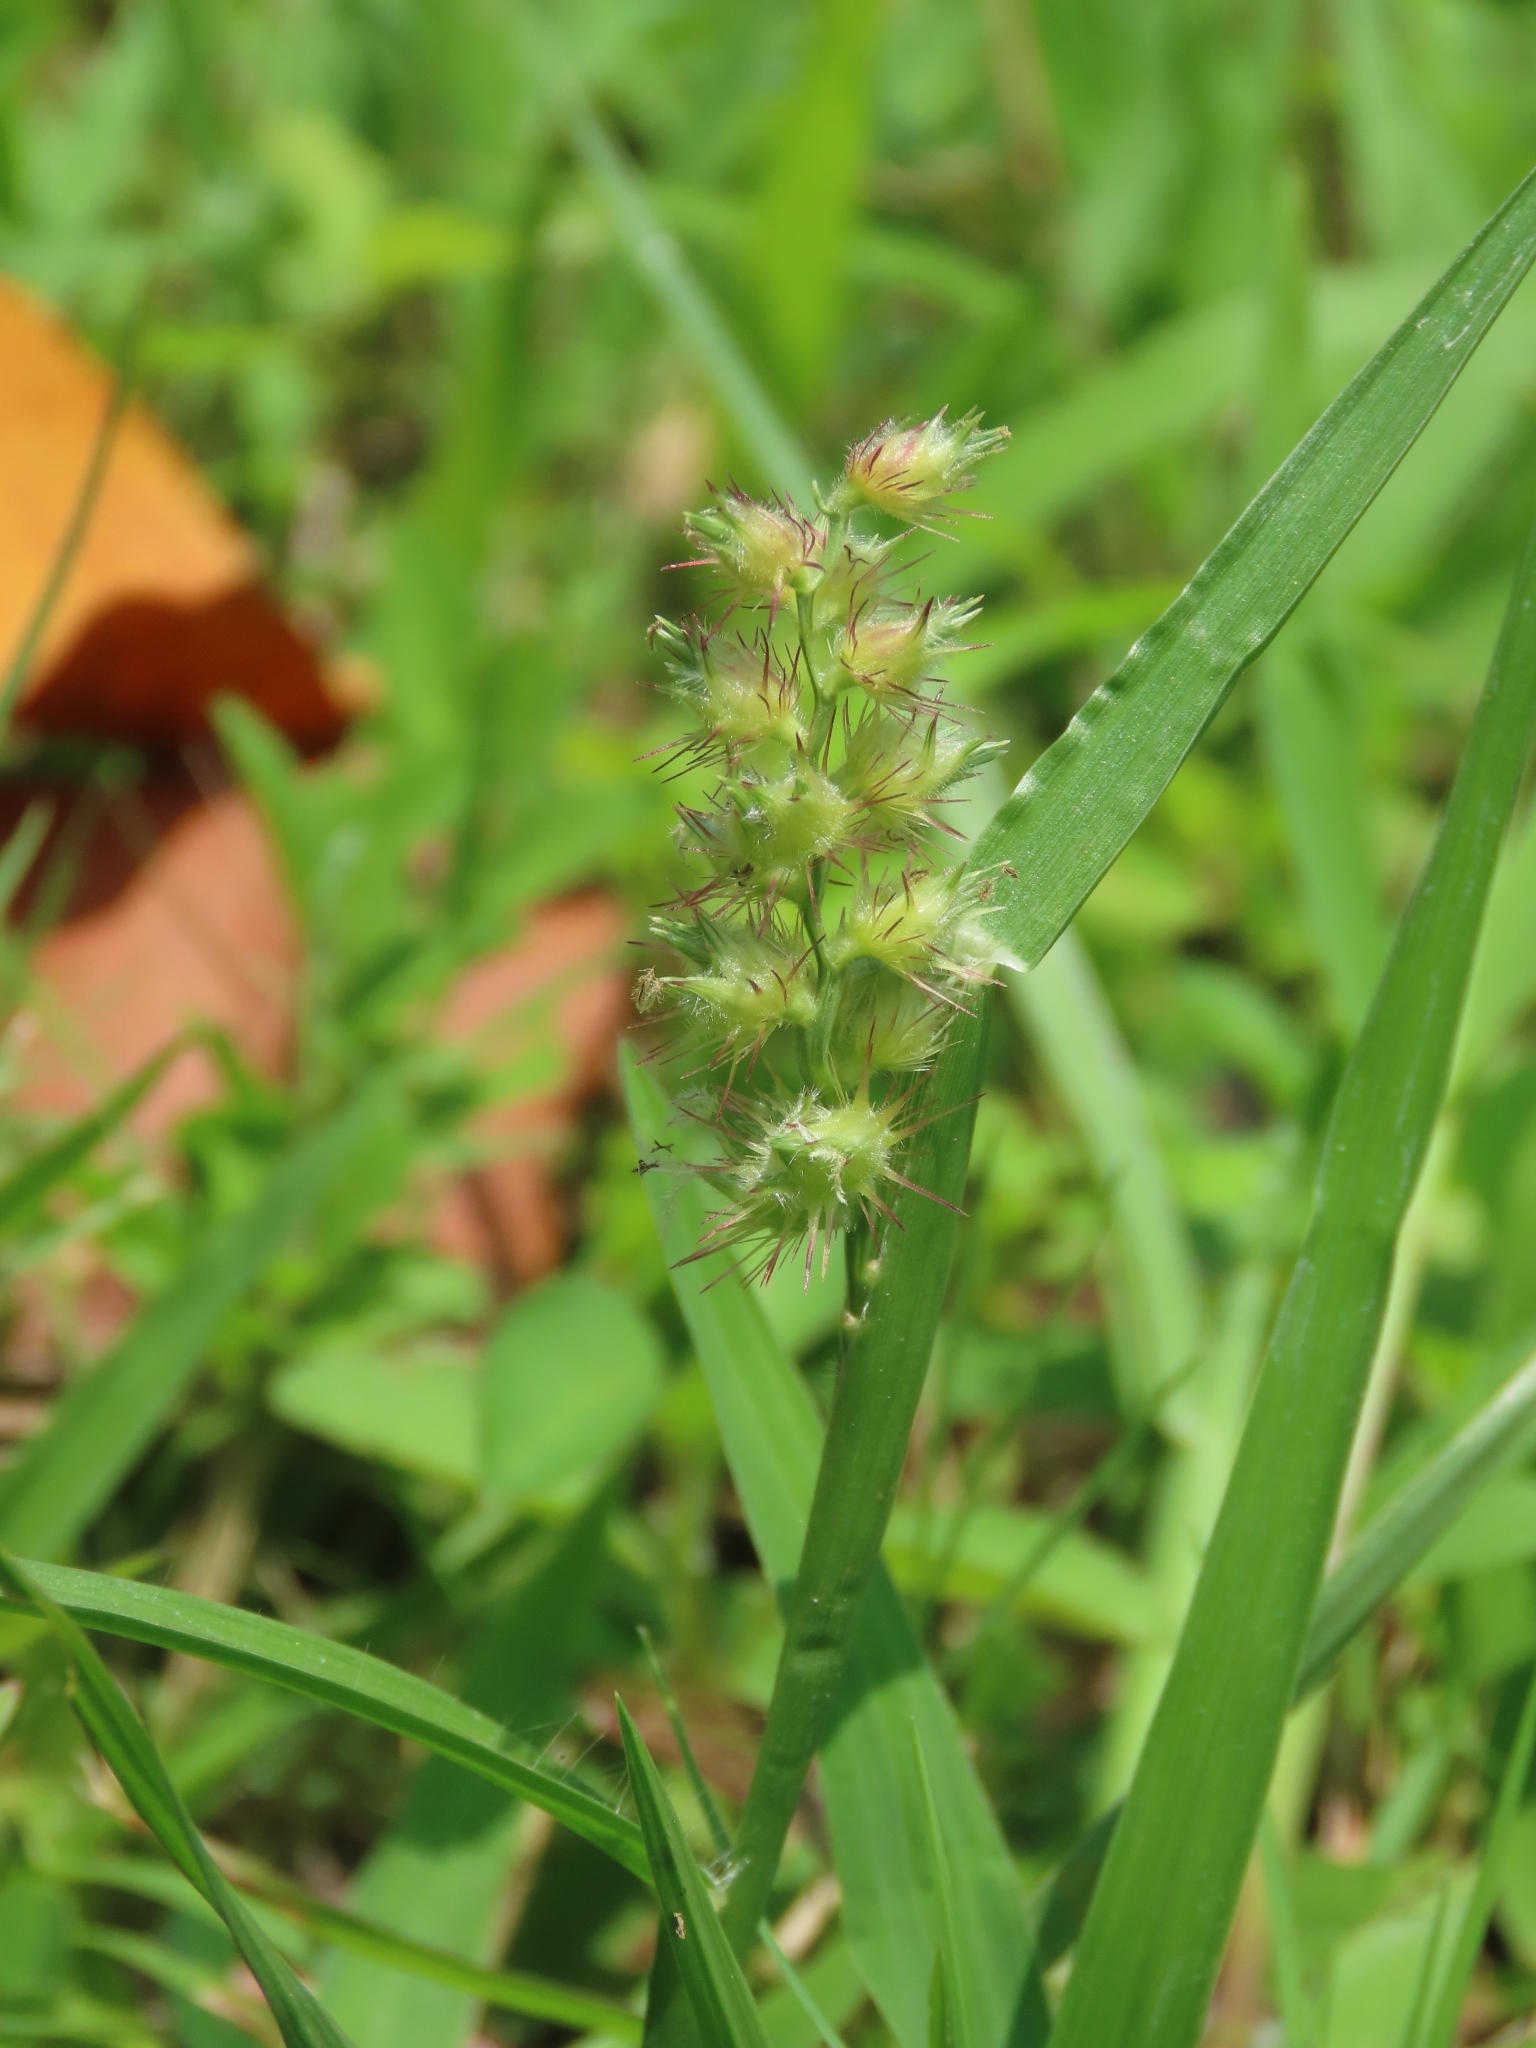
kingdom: Plantae
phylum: Tracheophyta
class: Liliopsida
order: Poales
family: Poaceae
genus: Cenchrus
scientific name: Cenchrus echinatus
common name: Southern sandbur
